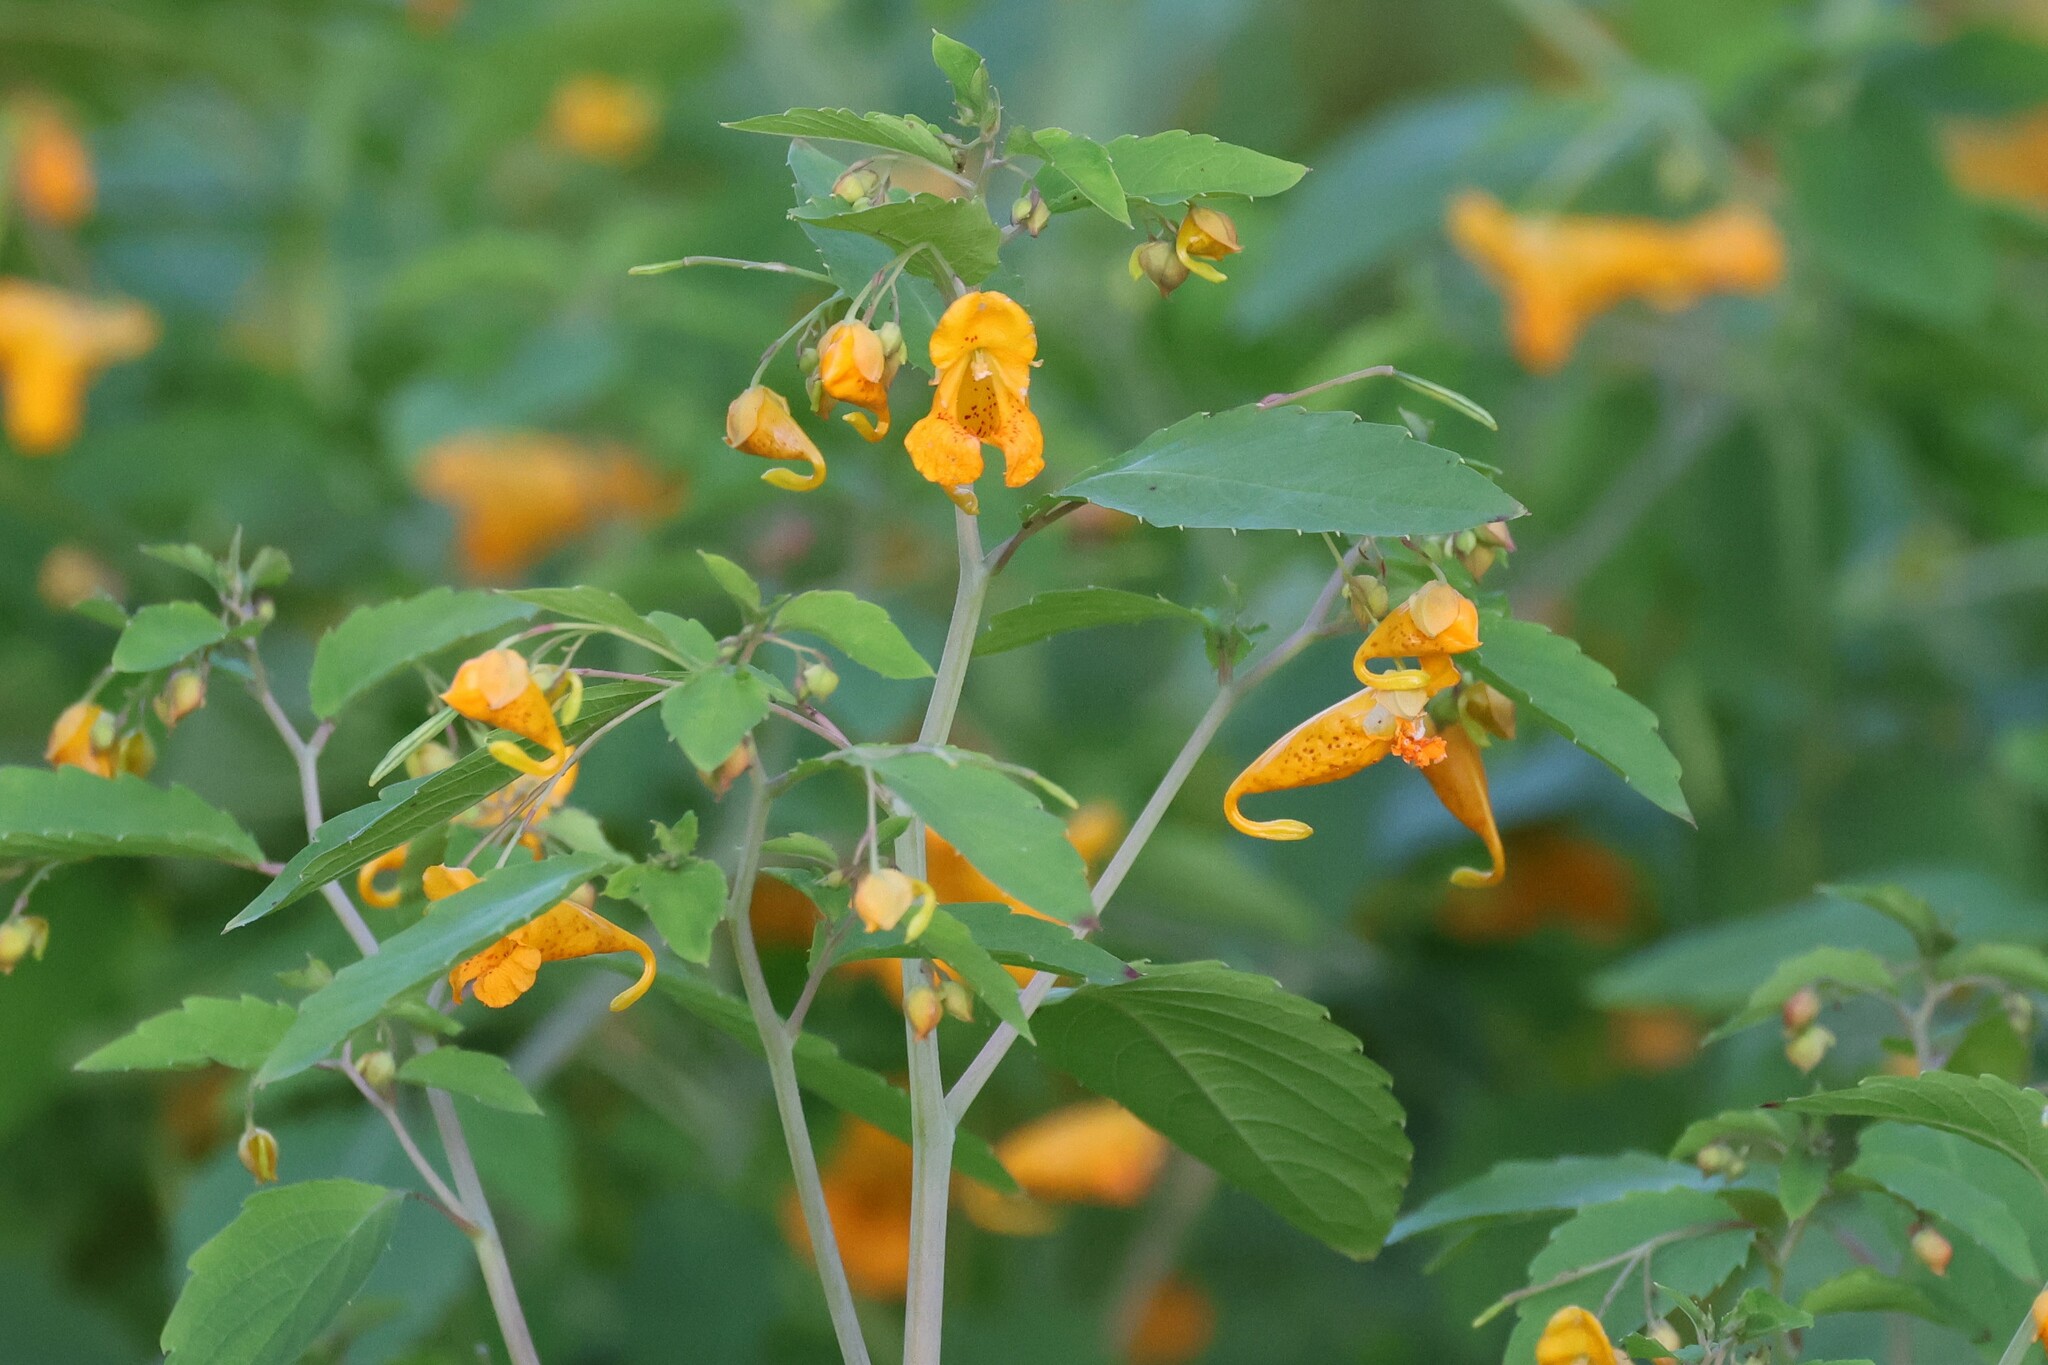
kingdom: Plantae
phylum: Tracheophyta
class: Magnoliopsida
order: Ericales
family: Balsaminaceae
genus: Impatiens
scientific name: Impatiens capensis
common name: Orange balsam
